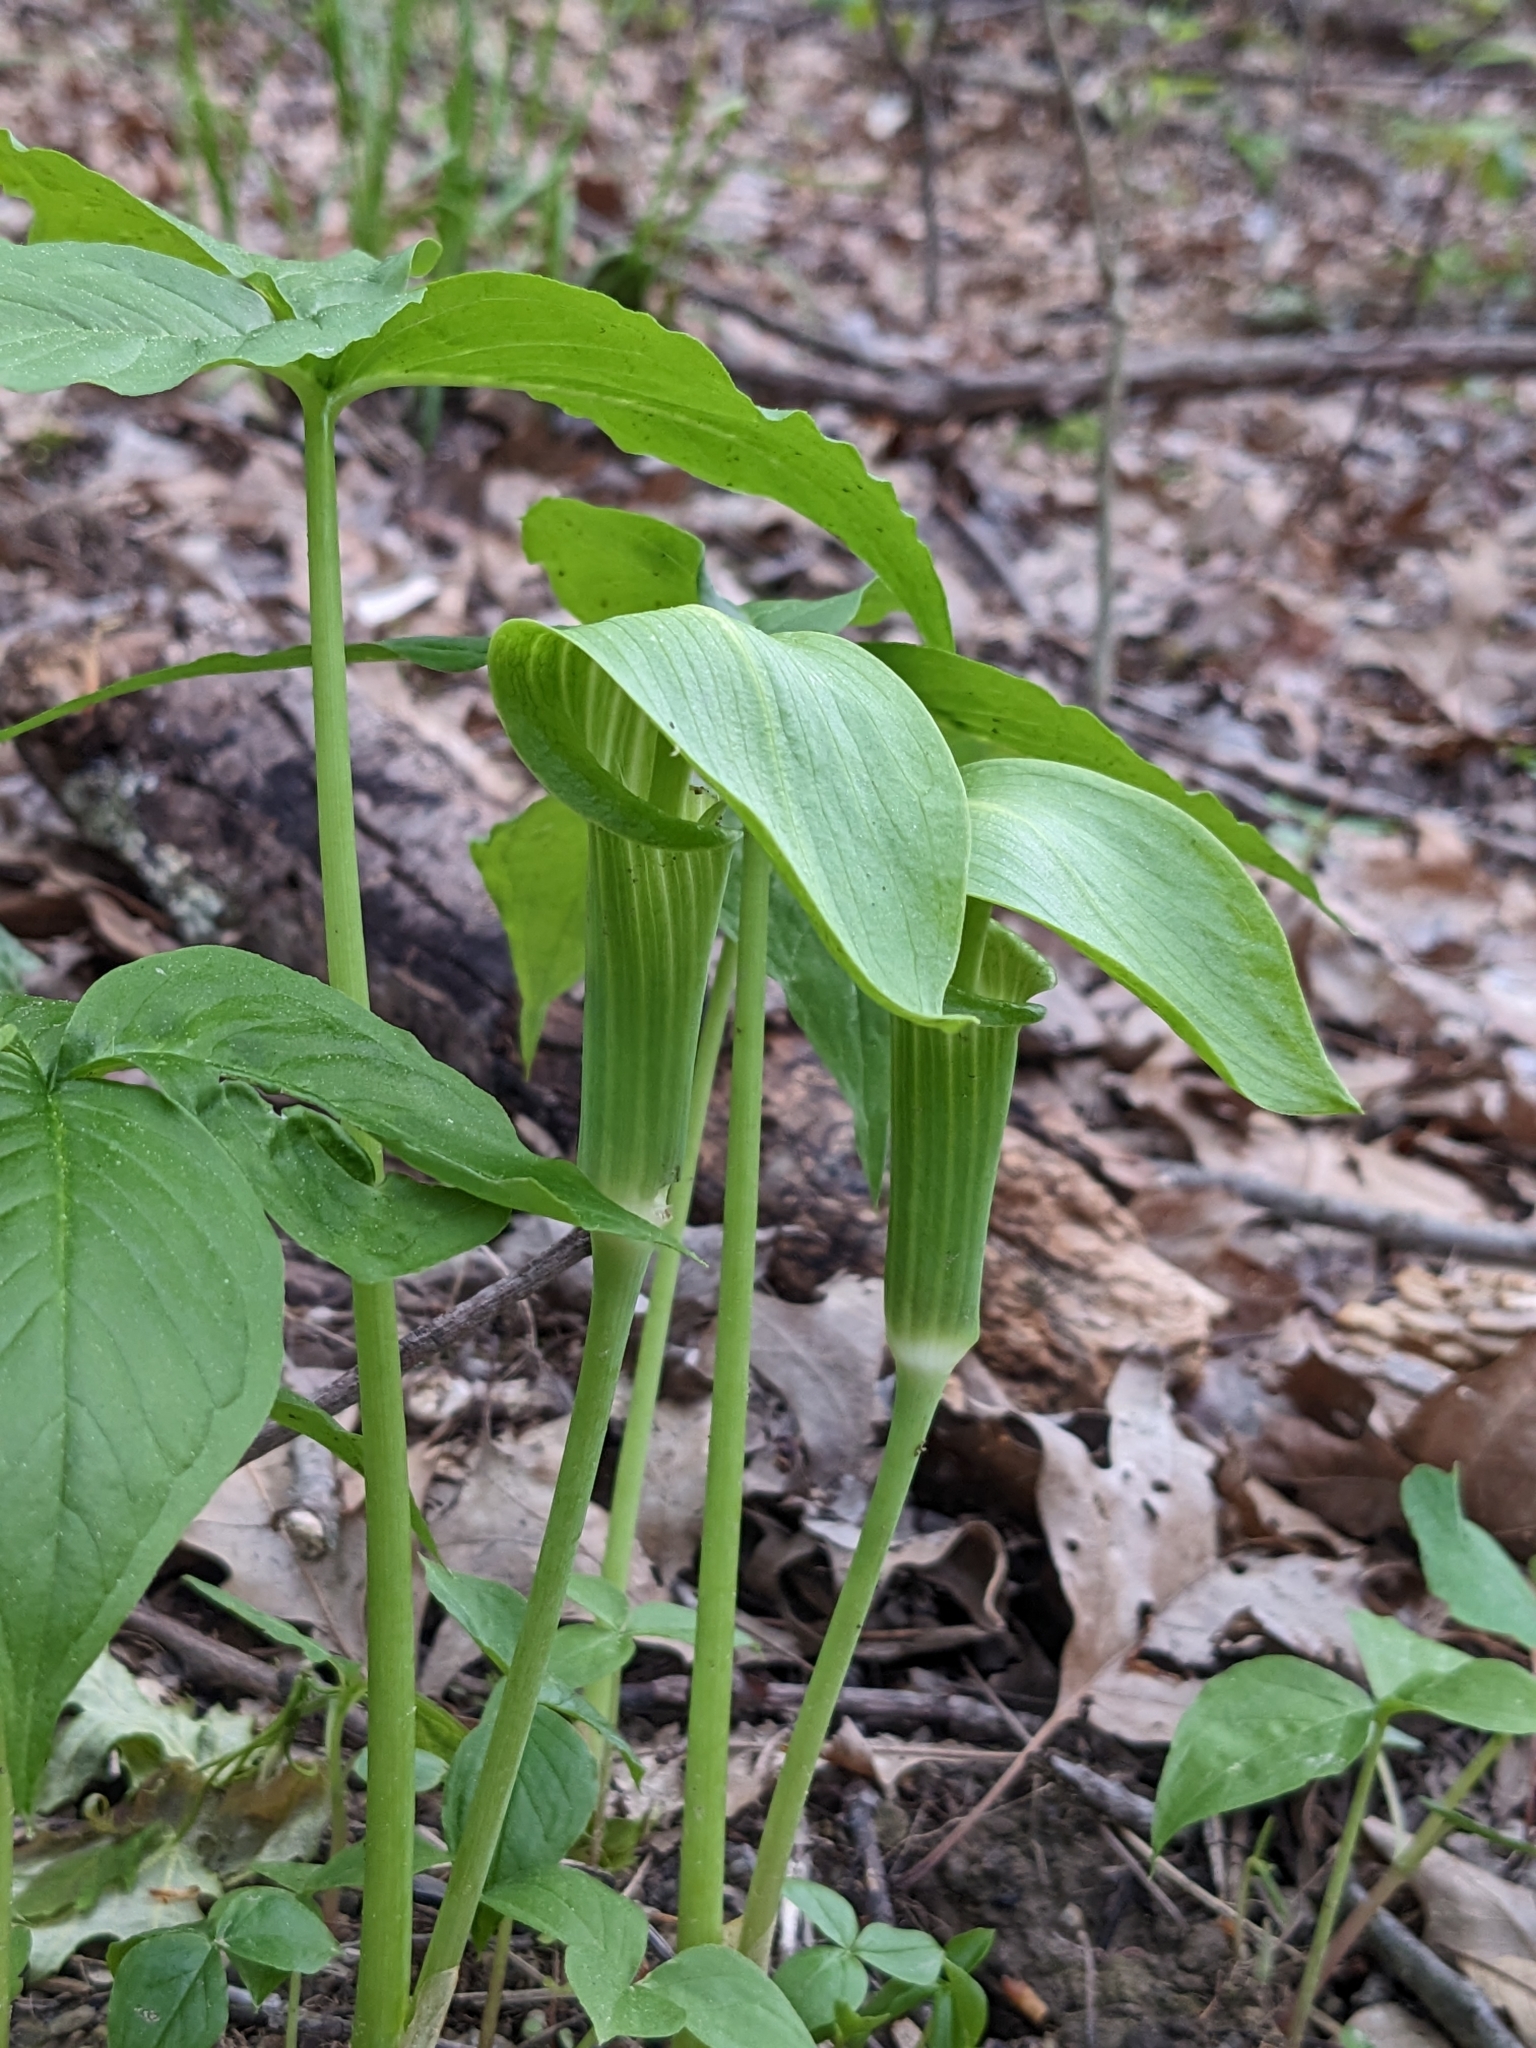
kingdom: Plantae
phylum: Tracheophyta
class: Liliopsida
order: Alismatales
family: Araceae
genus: Arisaema
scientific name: Arisaema triphyllum
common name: Jack-in-the-pulpit
